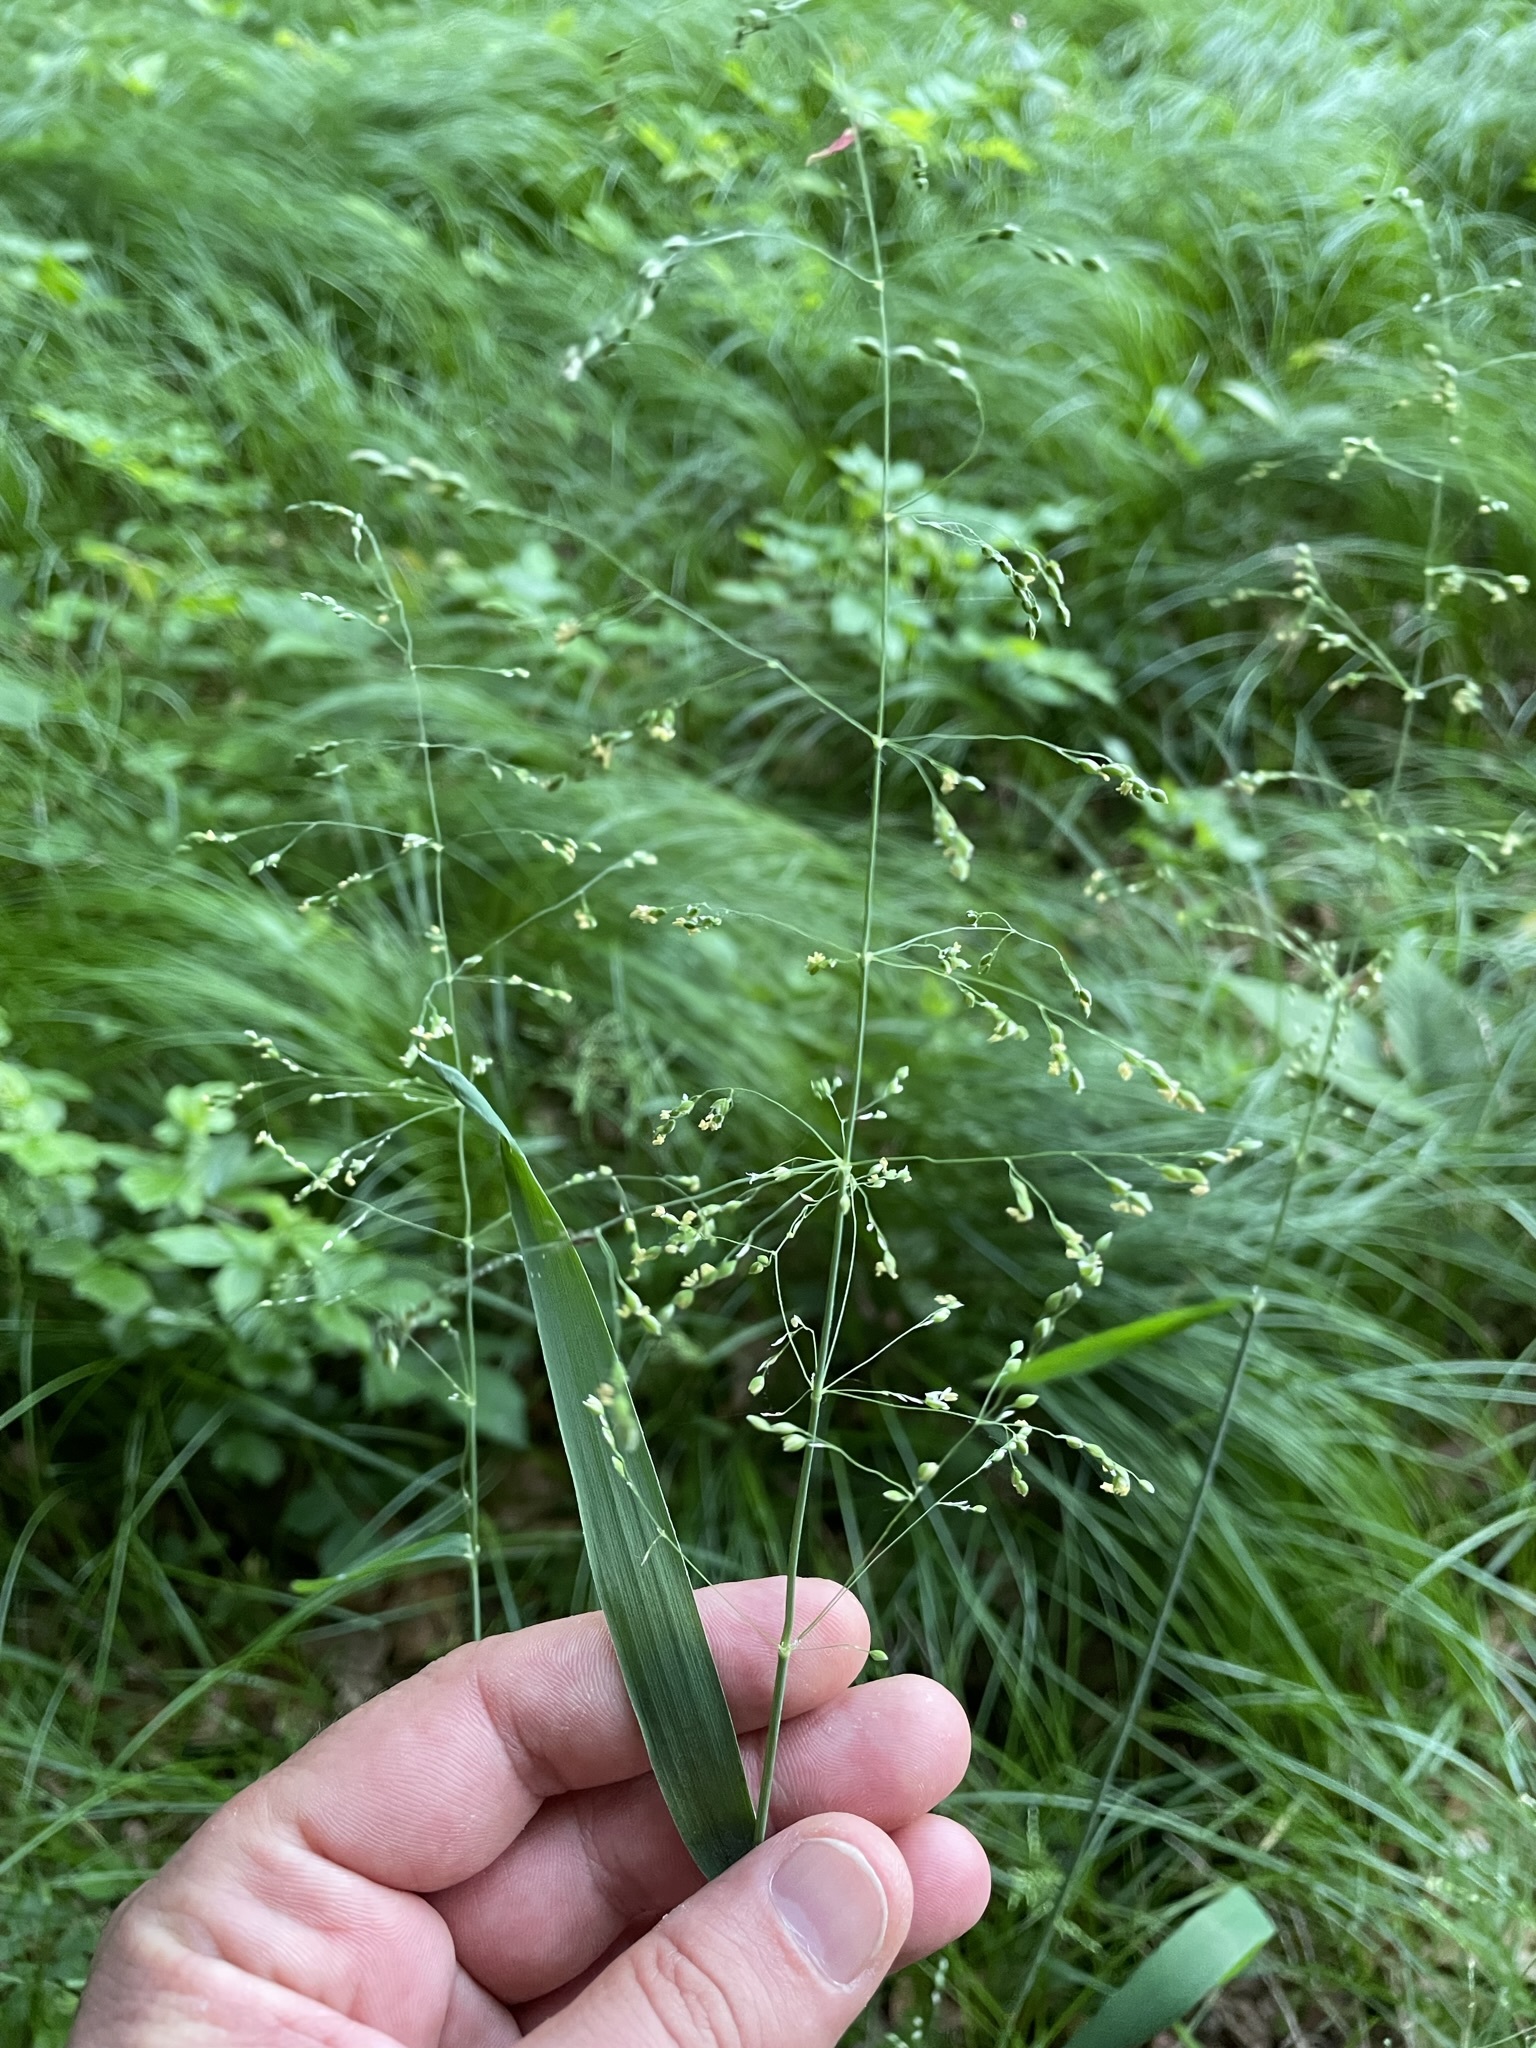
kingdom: Plantae
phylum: Tracheophyta
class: Liliopsida
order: Poales
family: Poaceae
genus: Milium
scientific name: Milium effusum
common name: Wood millet
